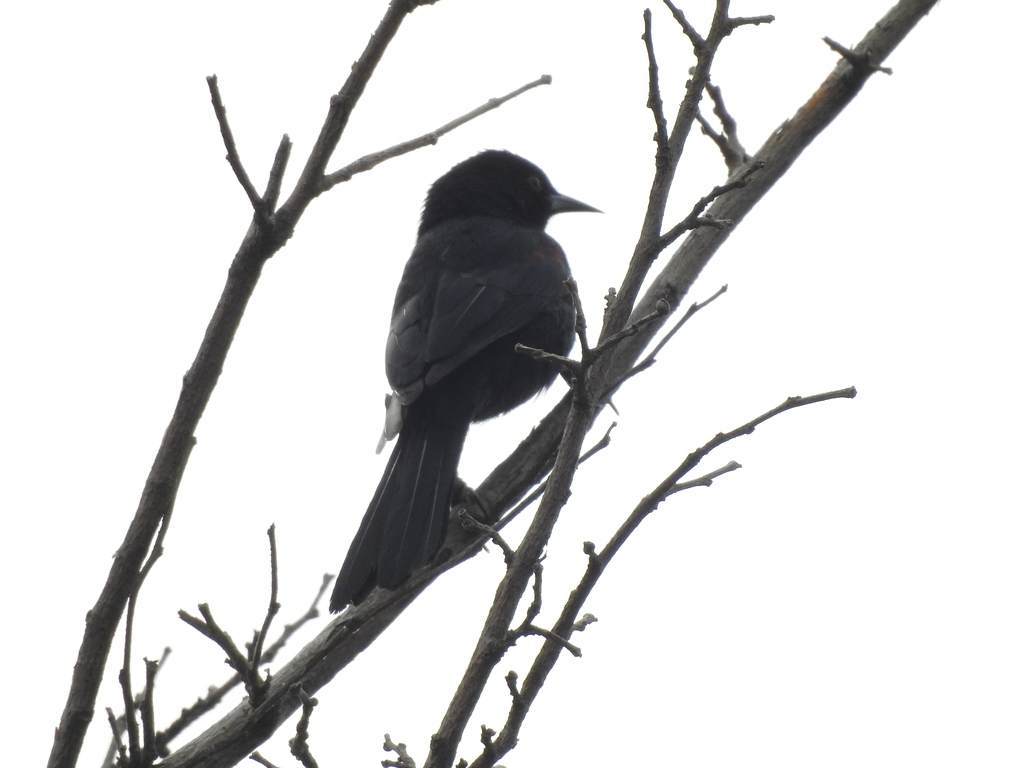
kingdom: Animalia
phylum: Chordata
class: Aves
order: Passeriformes
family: Icteridae
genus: Icterus
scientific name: Icterus cayanensis
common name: Epaulet oriole
